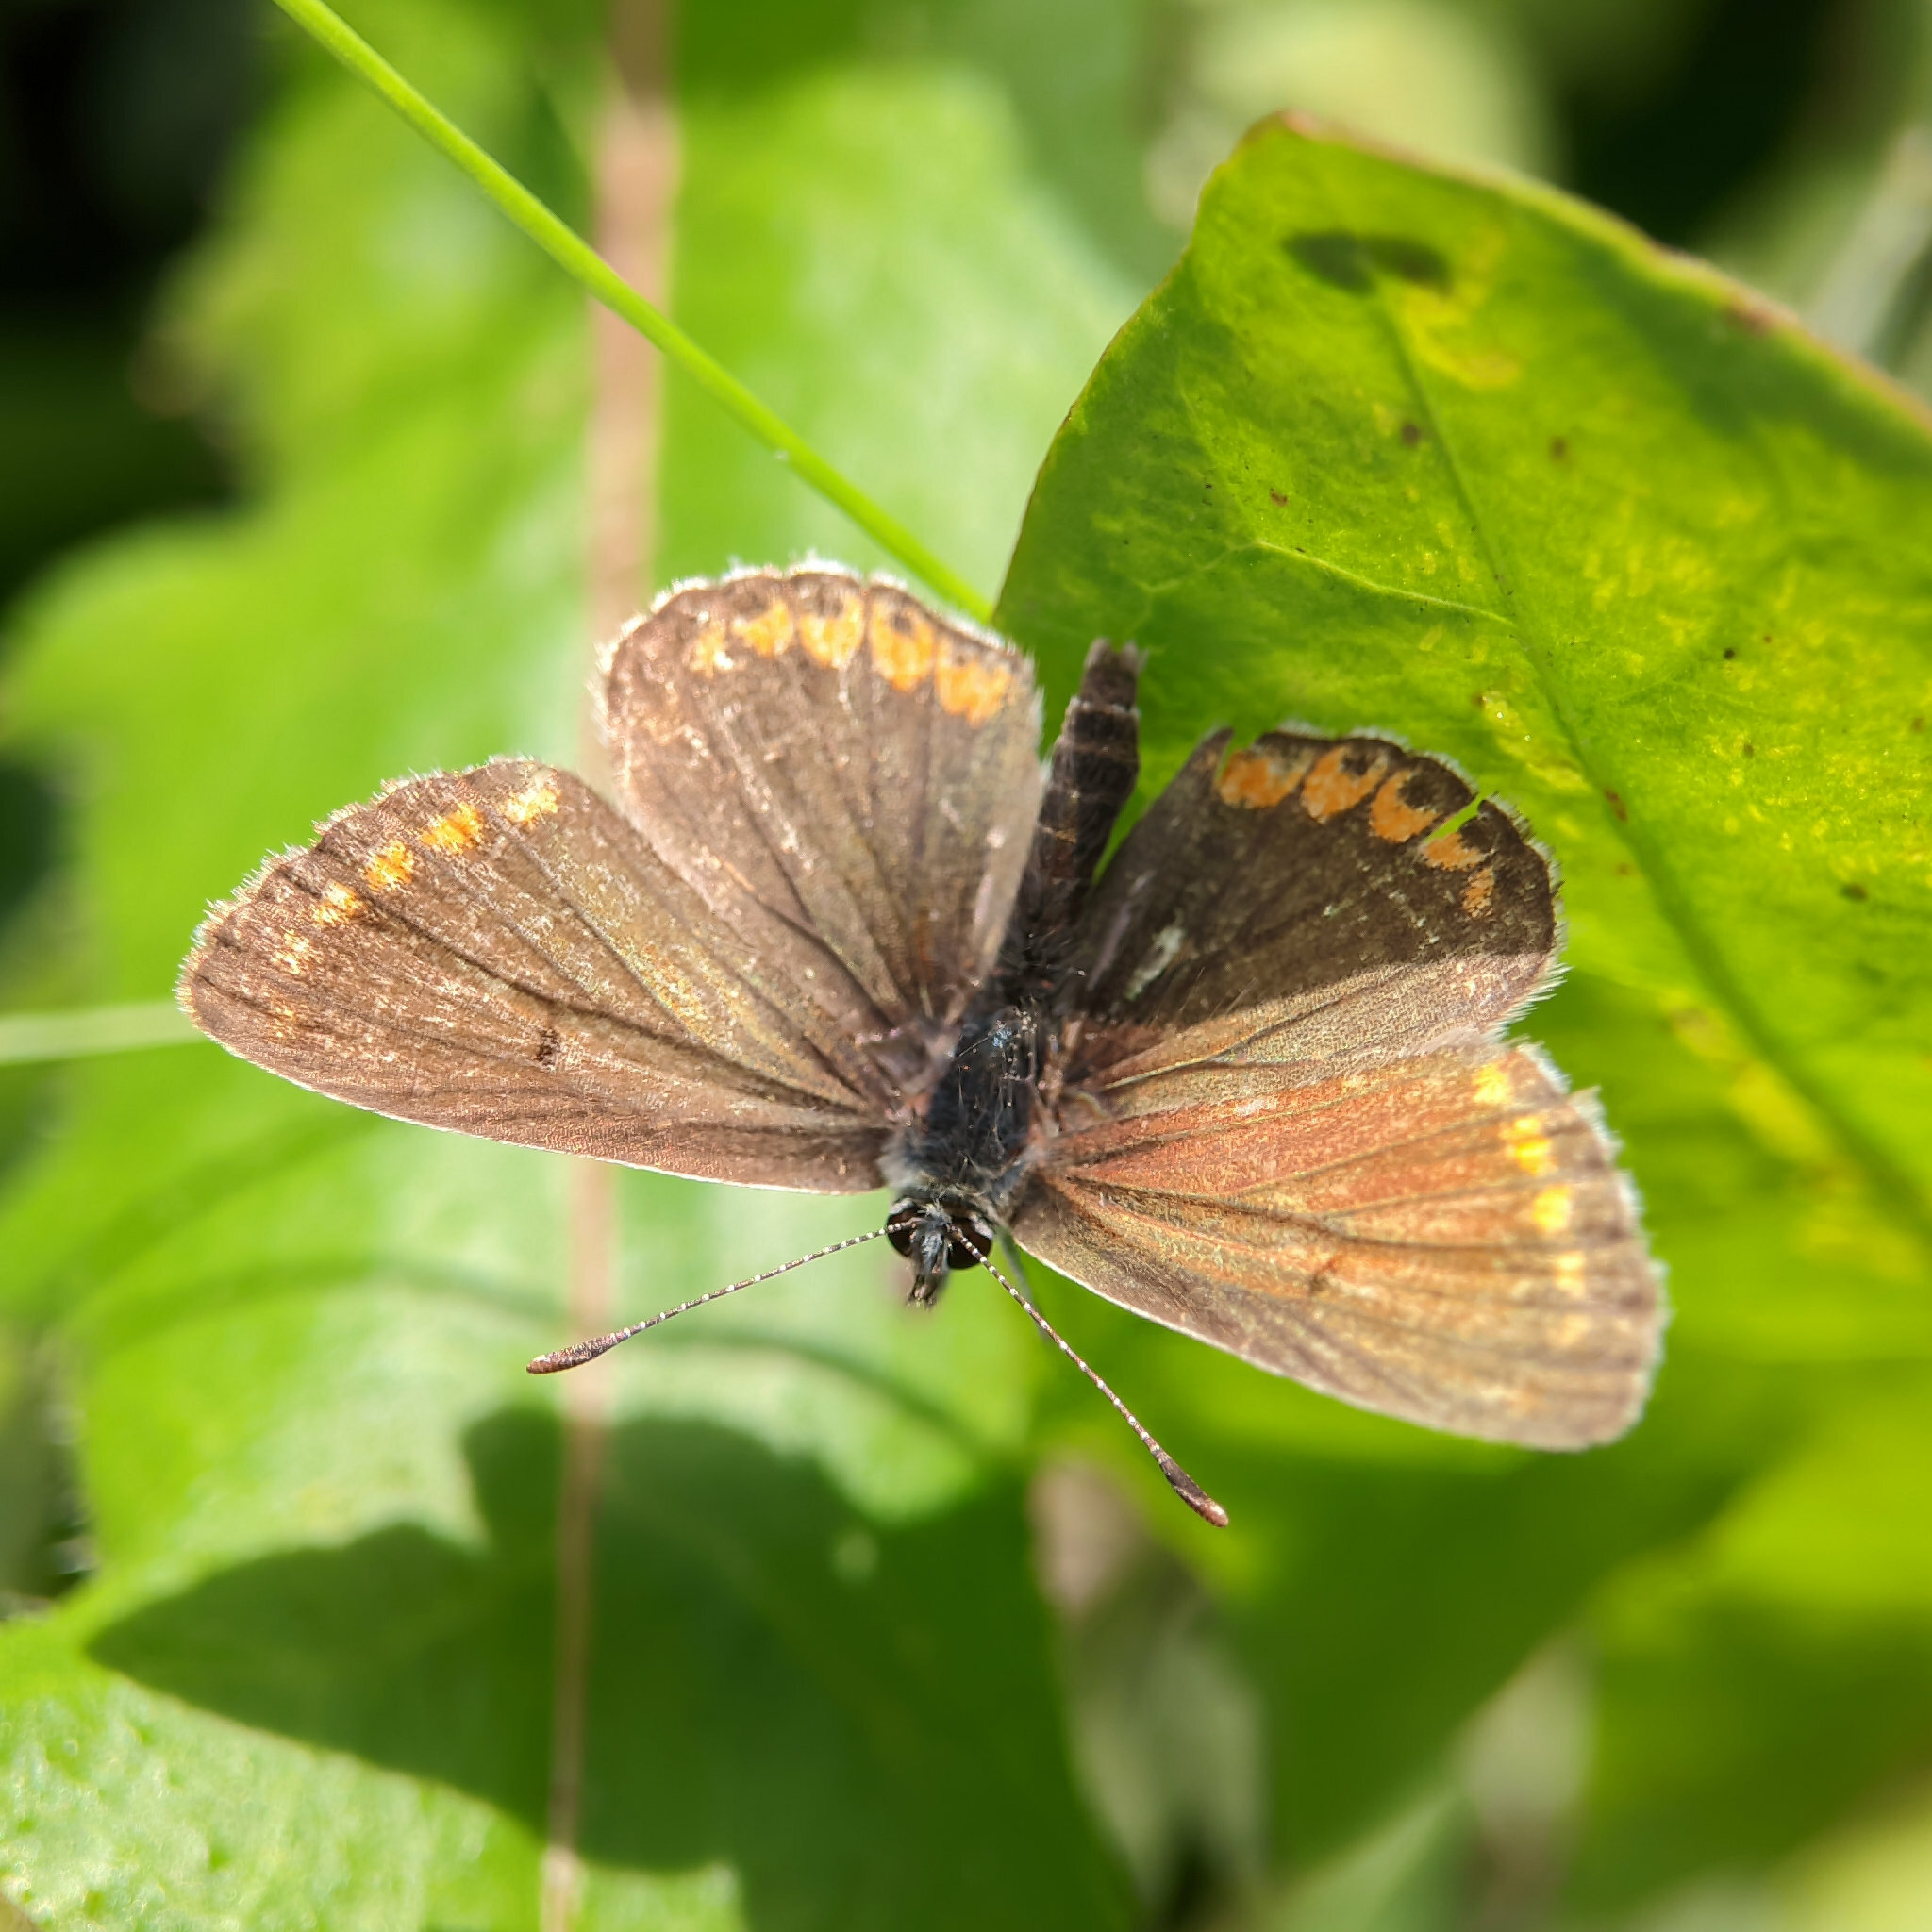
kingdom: Animalia
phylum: Arthropoda
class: Insecta
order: Lepidoptera
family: Lycaenidae
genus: Aricia
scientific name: Aricia agestis
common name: Brown argus
